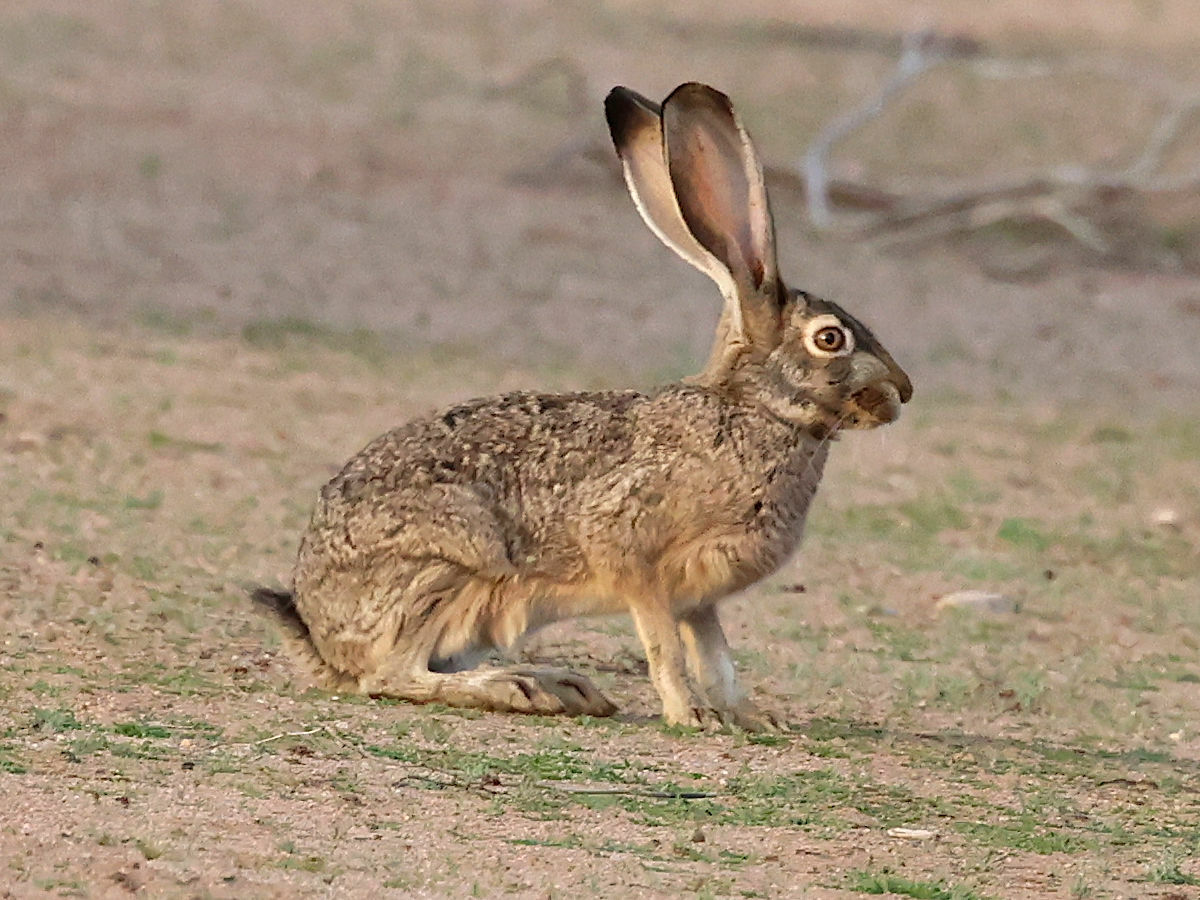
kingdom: Animalia
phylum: Chordata
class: Mammalia
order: Lagomorpha
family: Leporidae
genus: Lepus
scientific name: Lepus californicus
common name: Black-tailed jackrabbit
